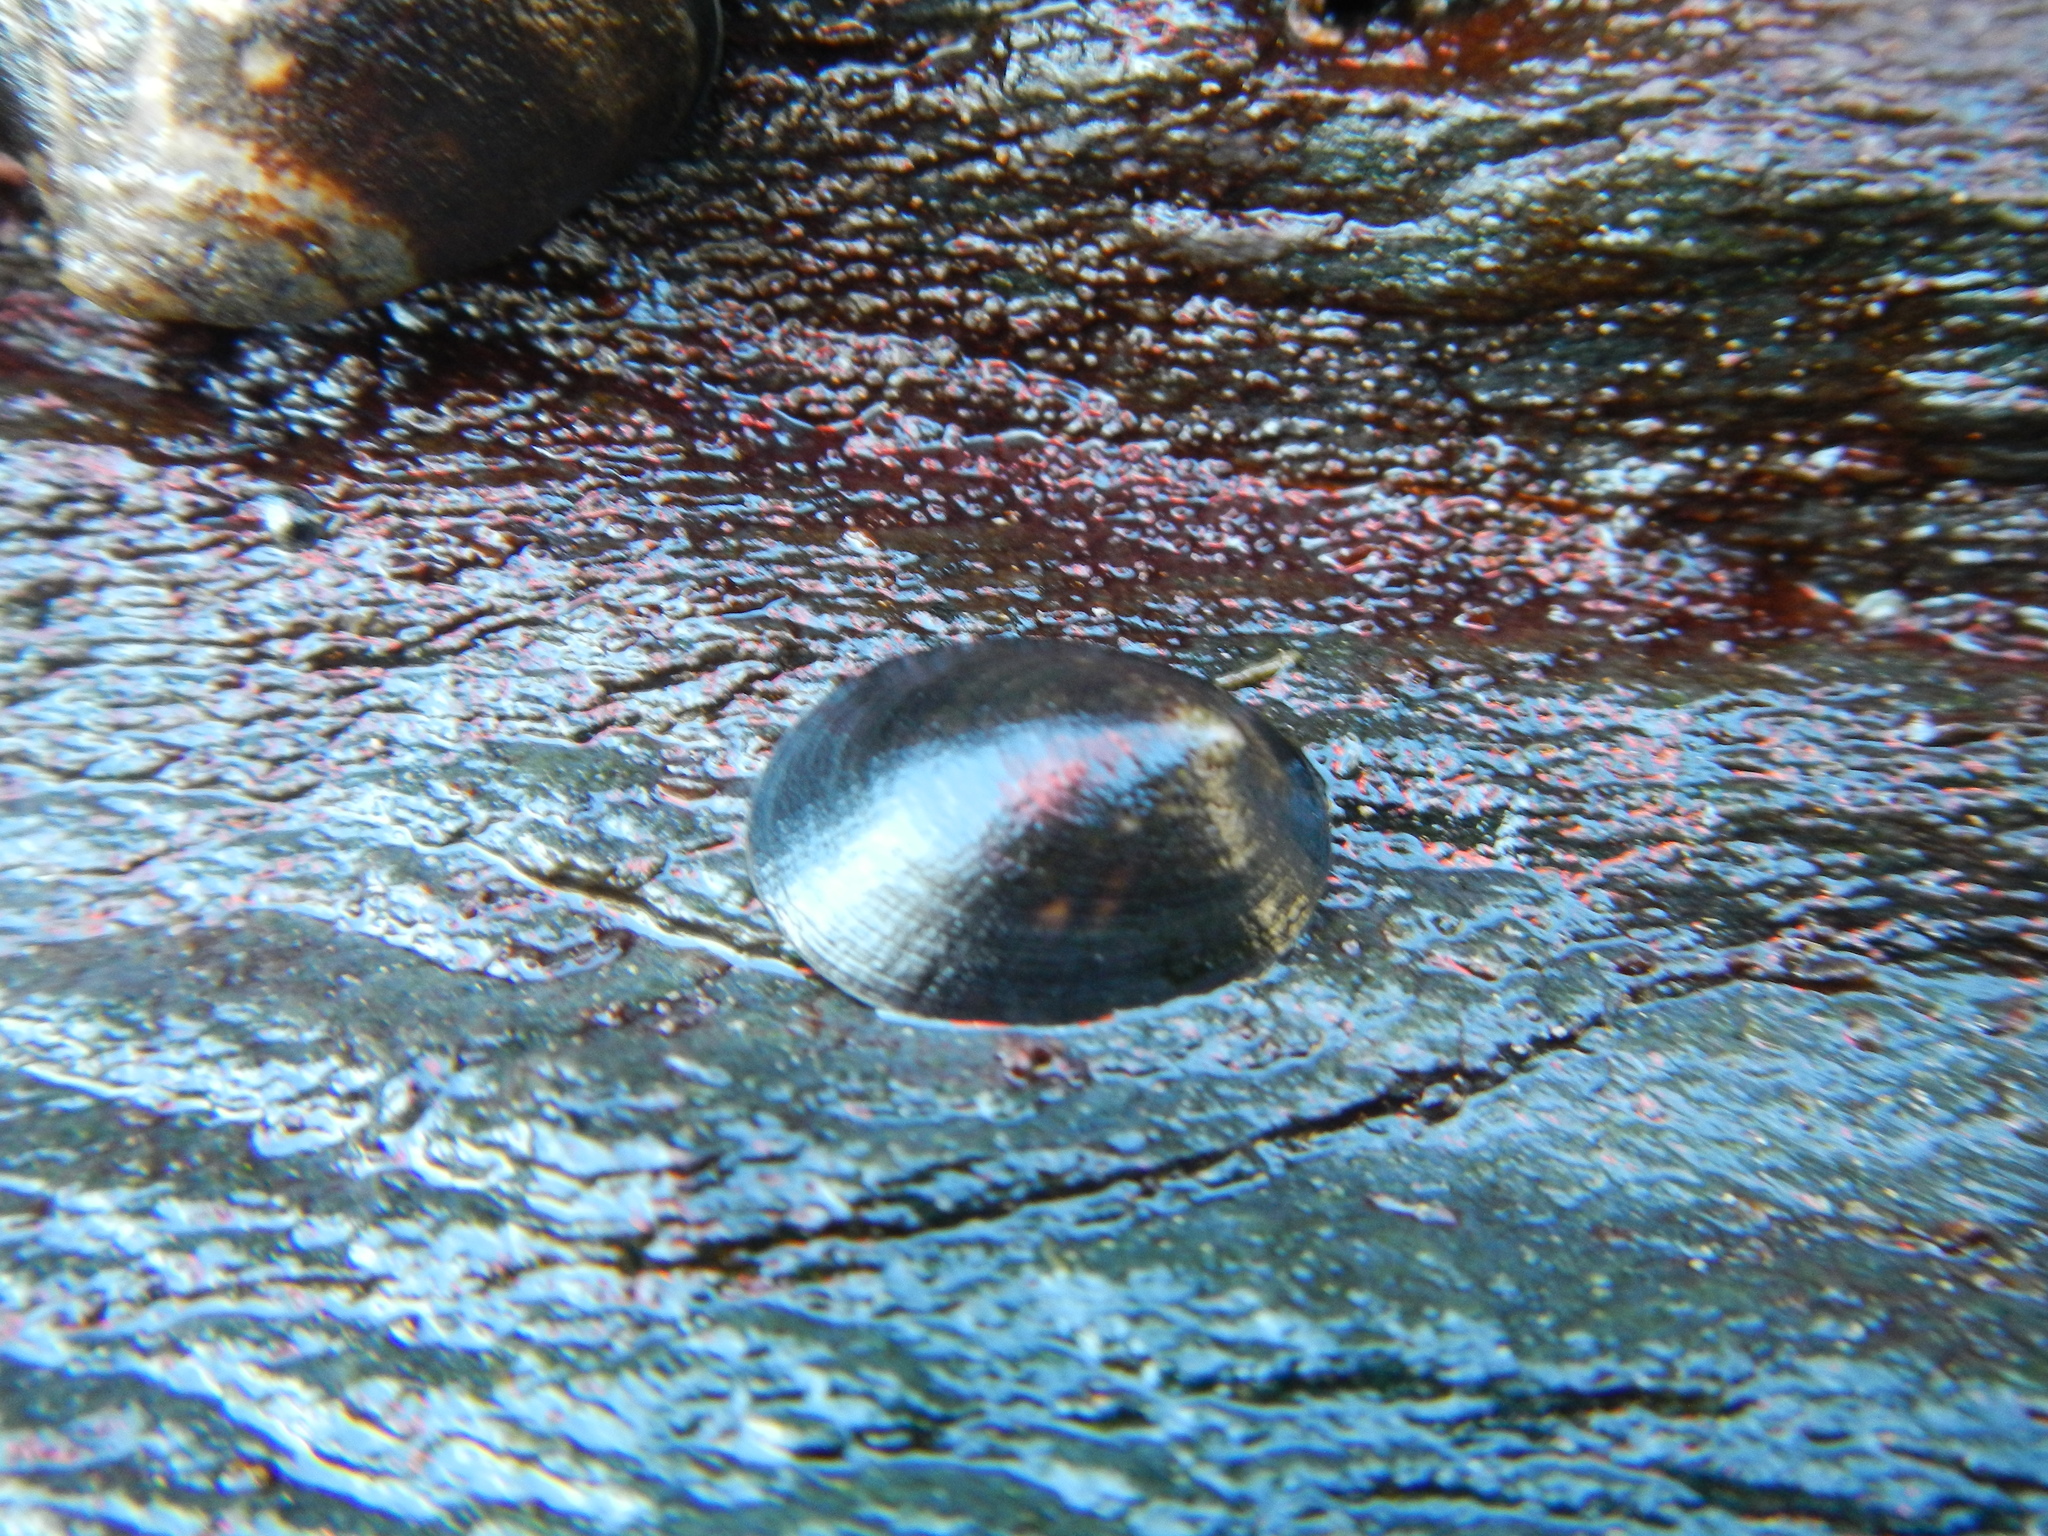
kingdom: Animalia
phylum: Mollusca
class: Gastropoda
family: Lottiidae
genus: Lottia
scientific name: Lottia orbignyi
